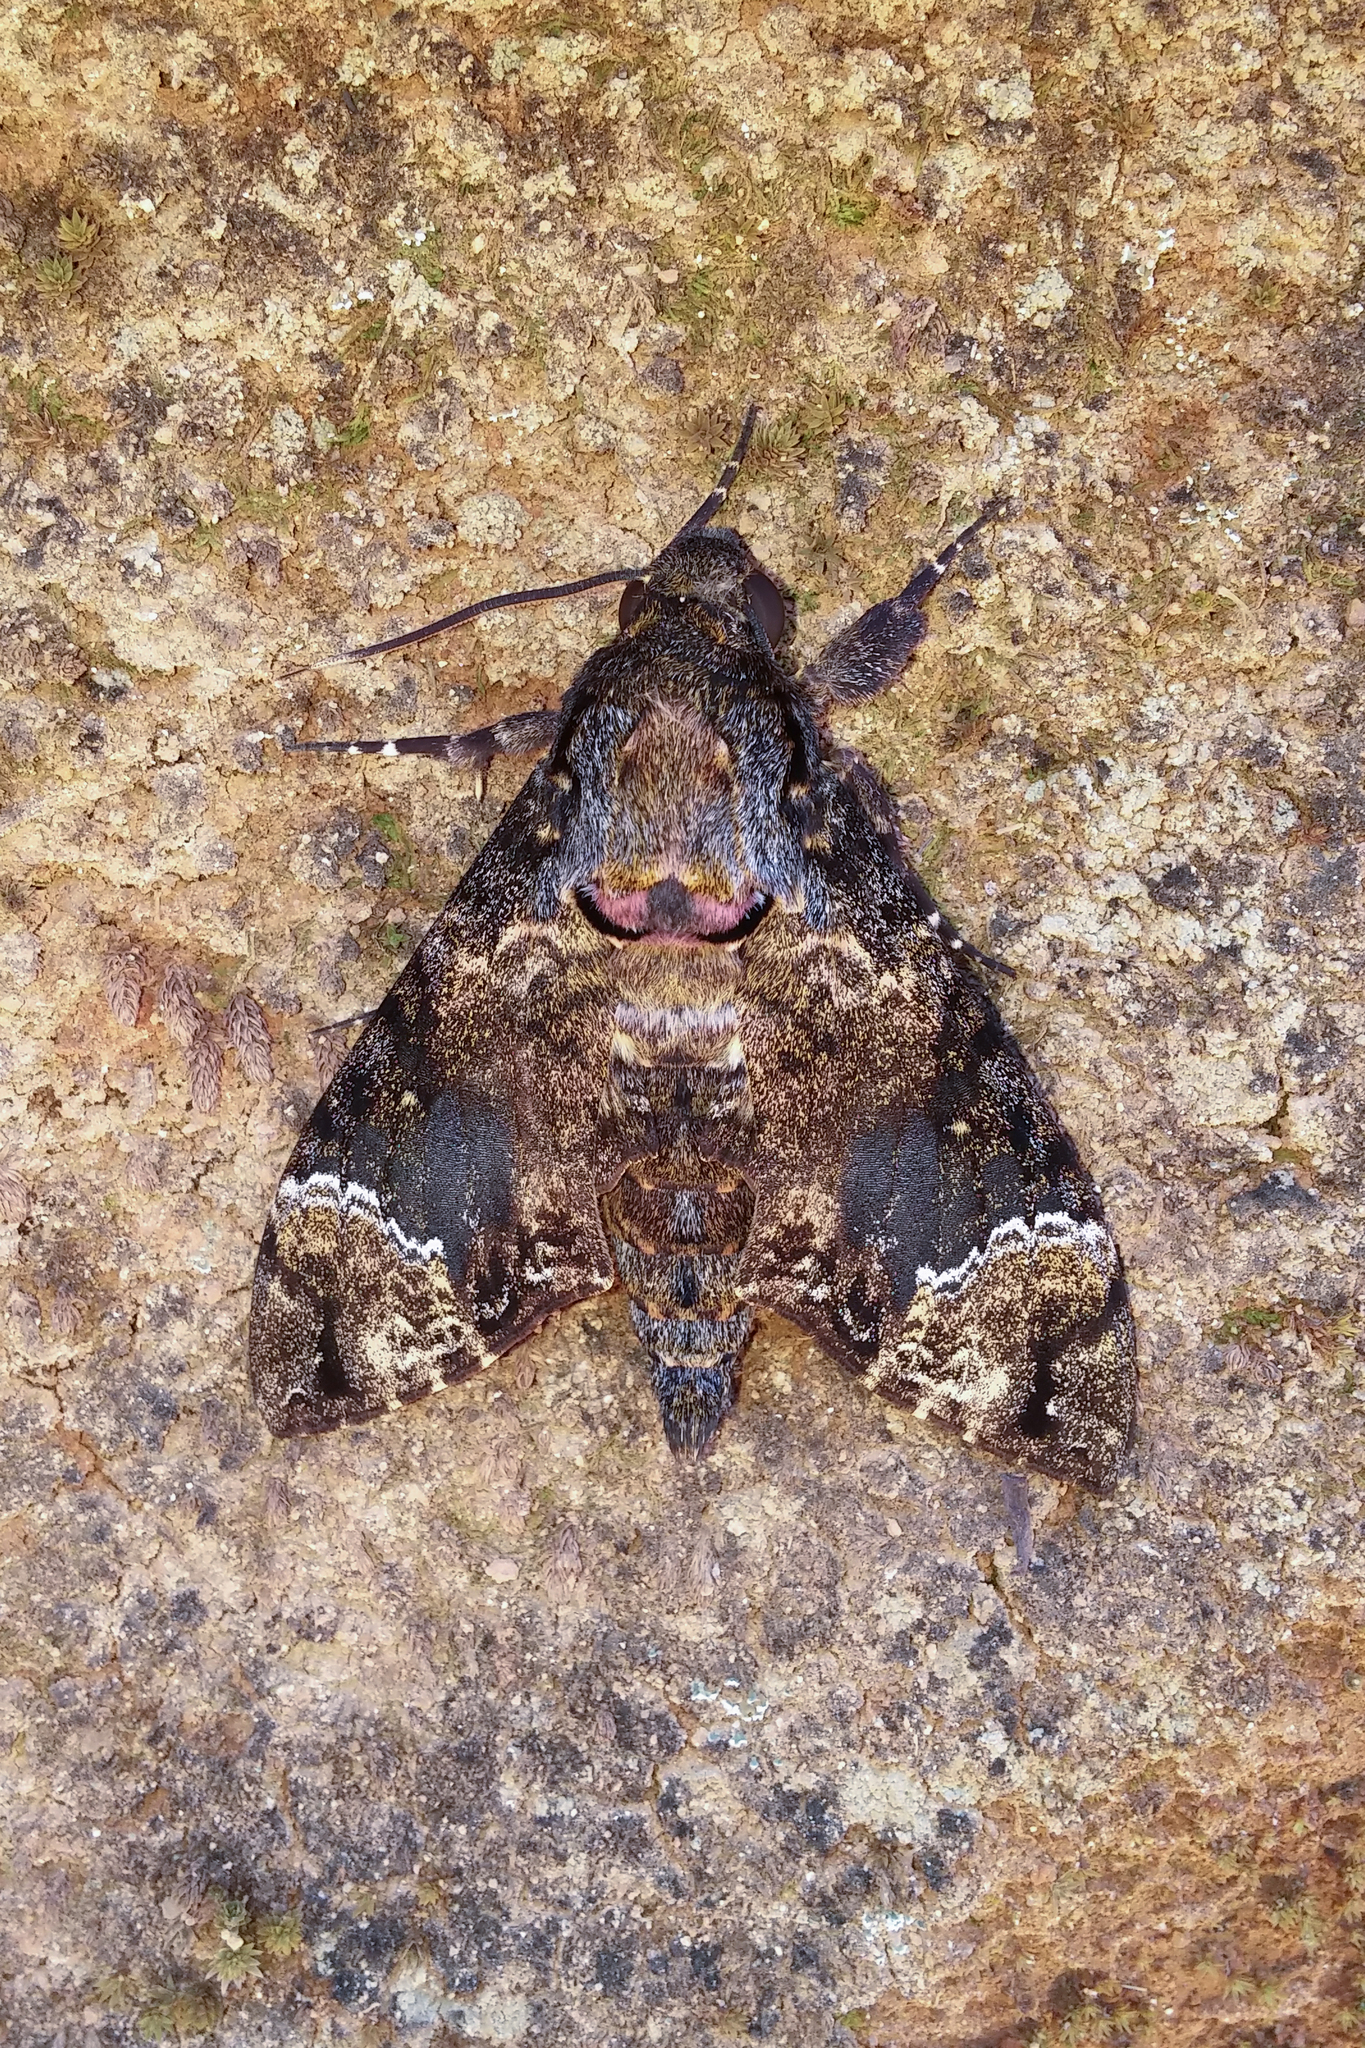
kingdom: Animalia
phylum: Arthropoda
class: Insecta
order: Lepidoptera
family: Sphingidae
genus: Coelonia
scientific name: Coelonia fulvinotata
